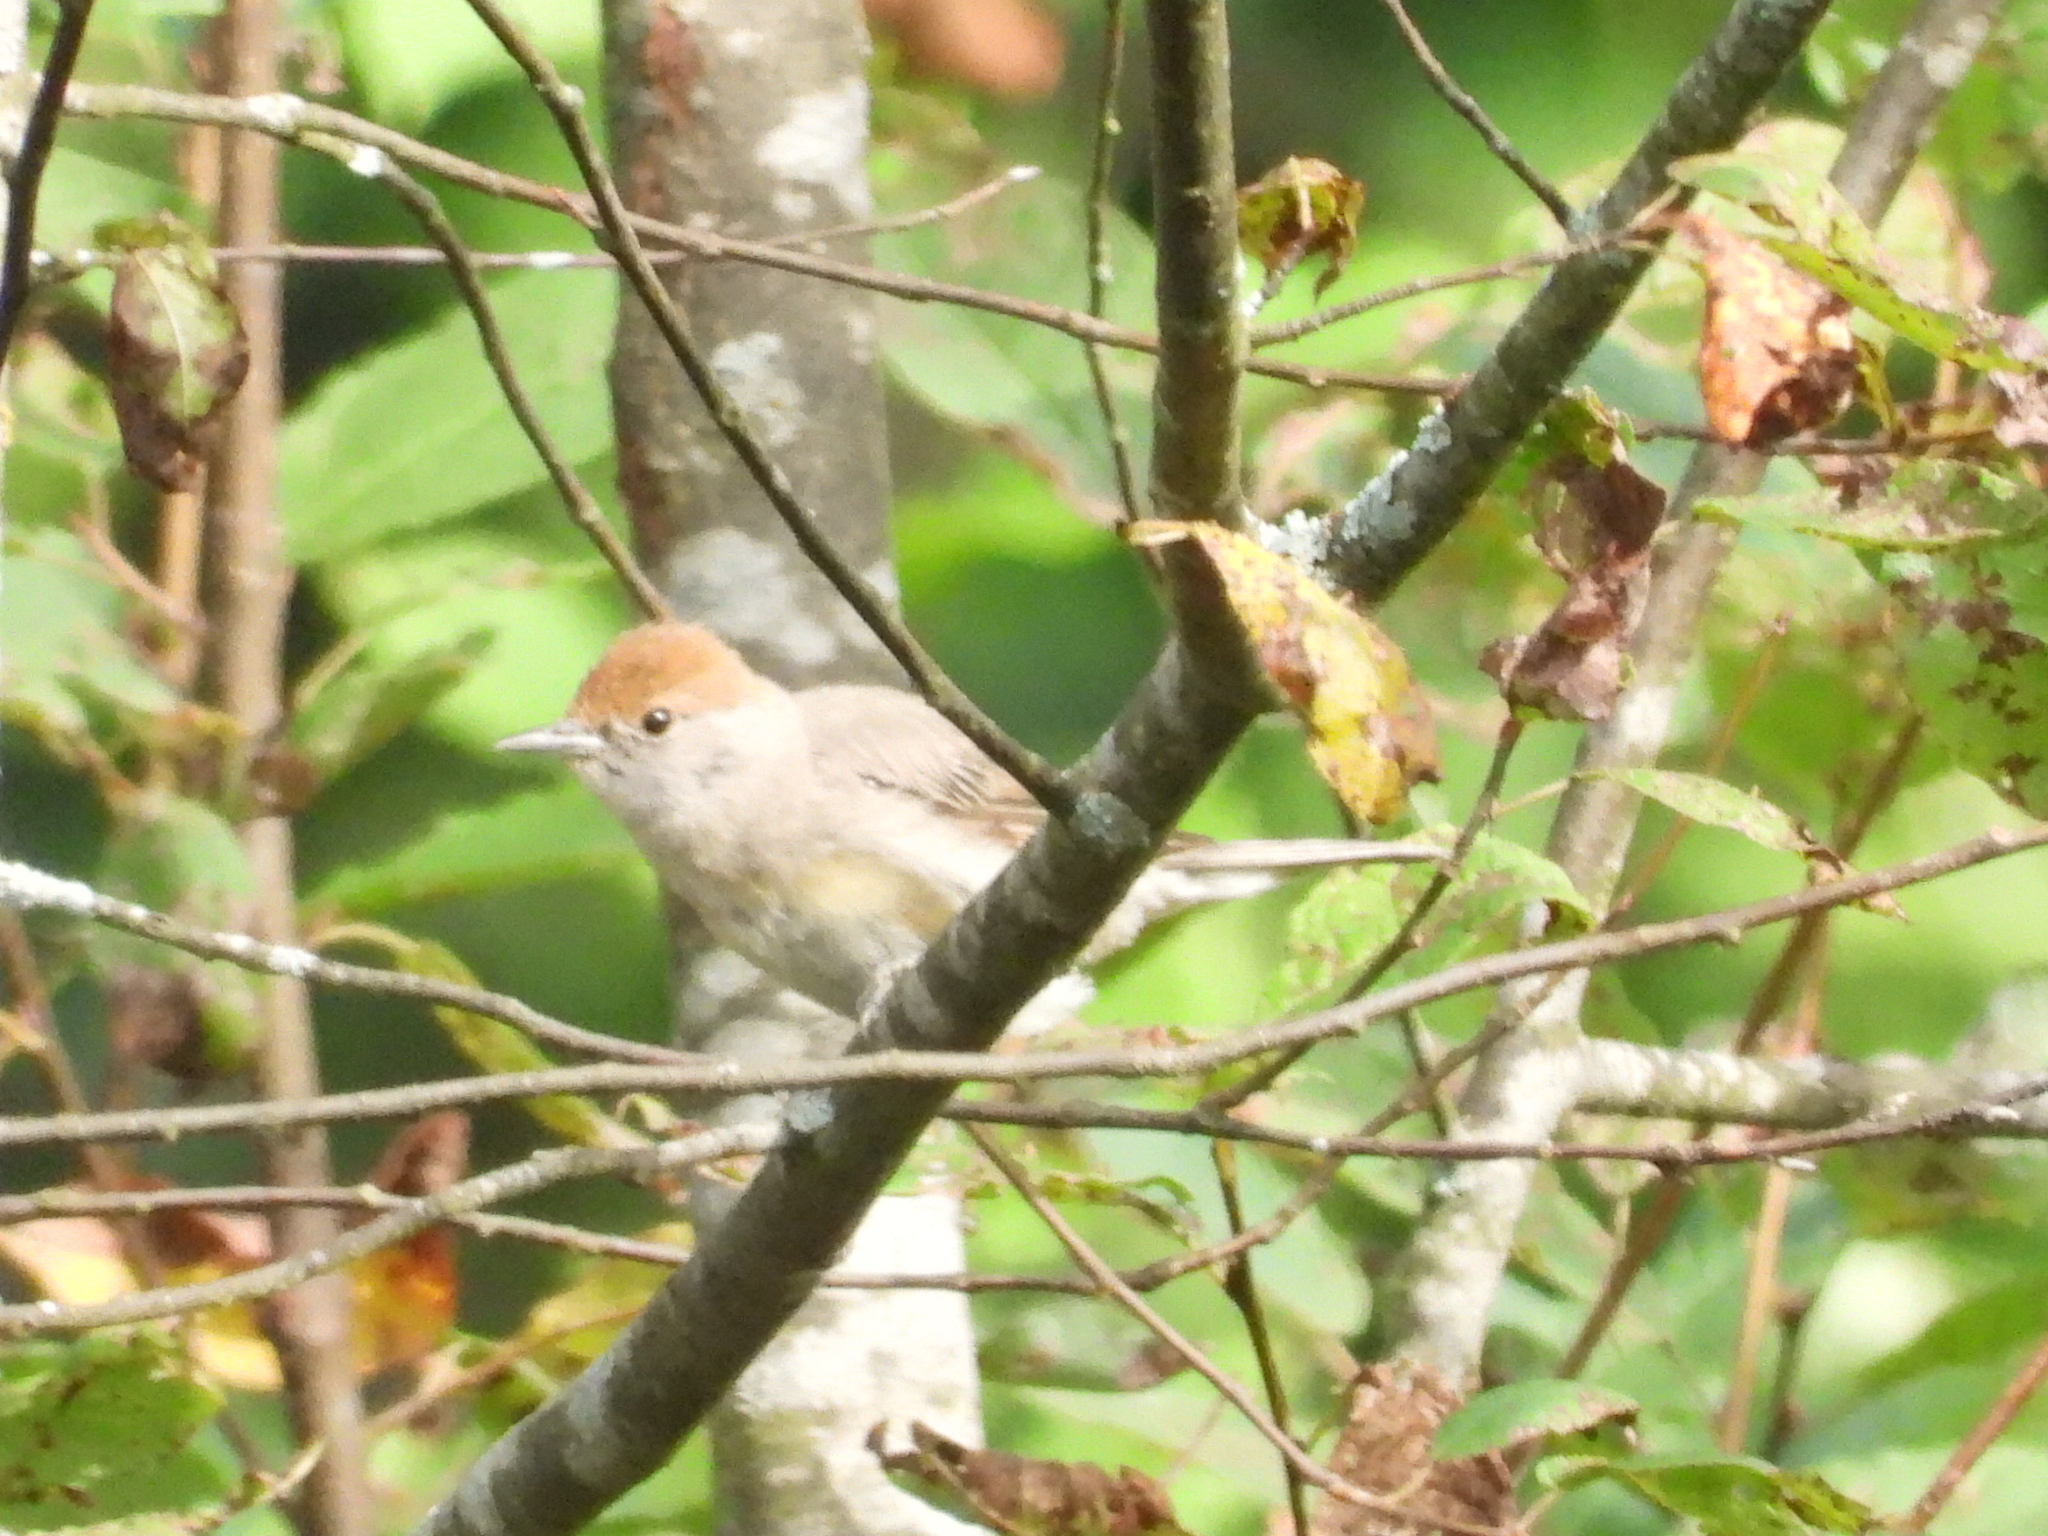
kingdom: Animalia
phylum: Chordata
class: Aves
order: Passeriformes
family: Sylviidae
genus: Sylvia
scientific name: Sylvia atricapilla
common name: Eurasian blackcap
